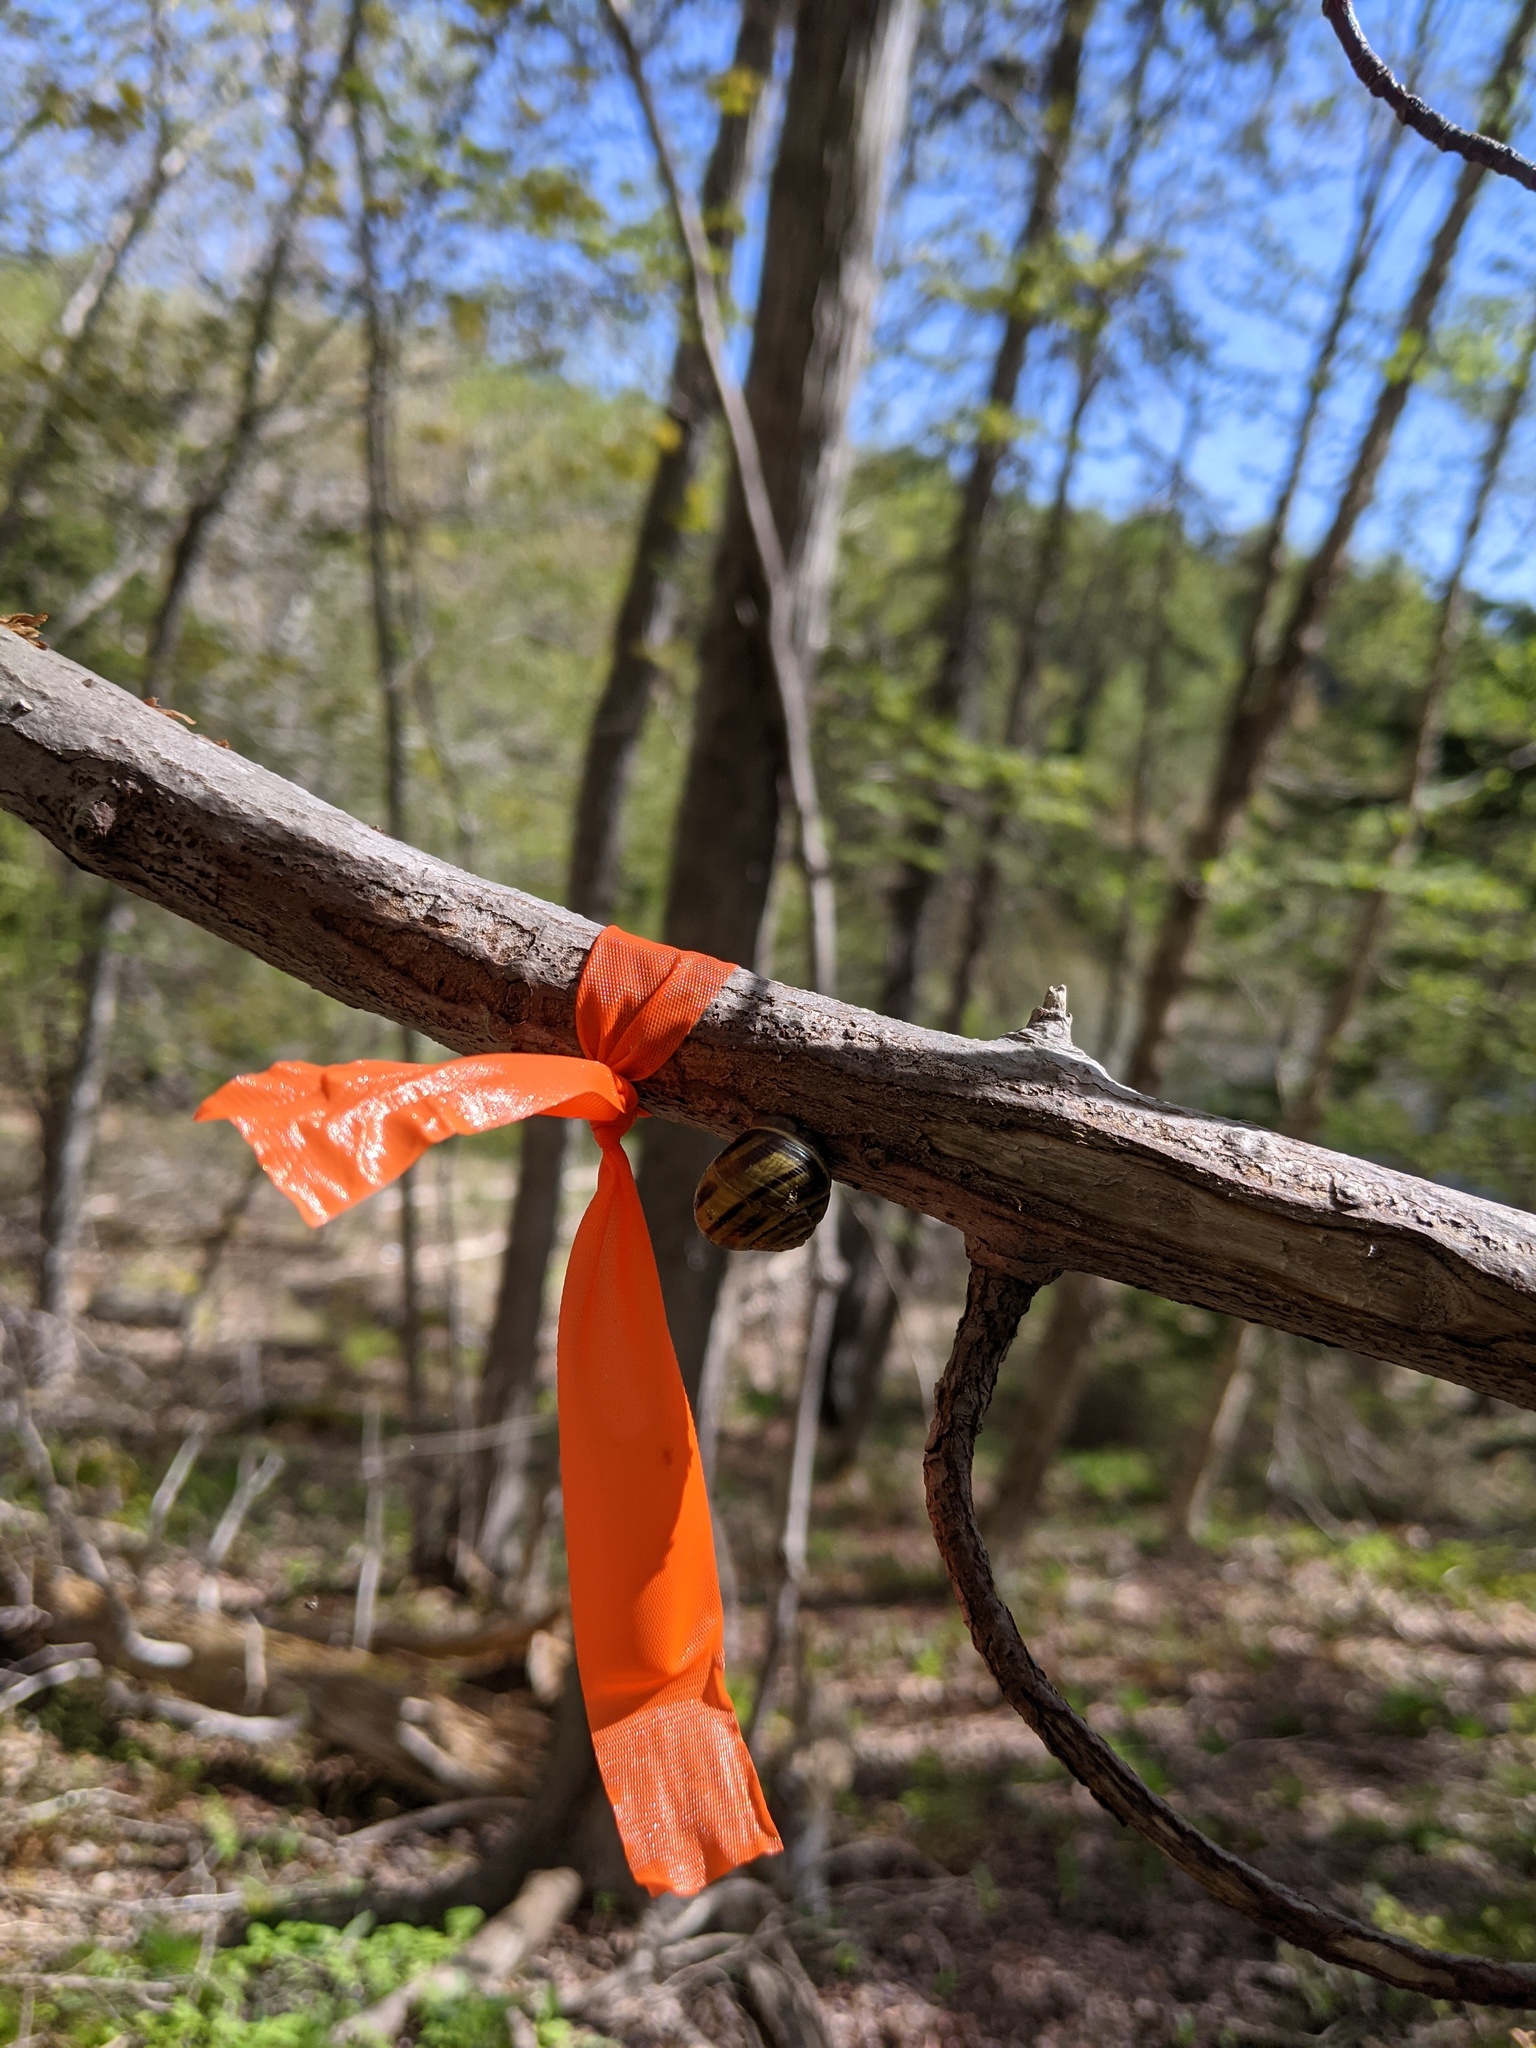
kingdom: Animalia
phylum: Mollusca
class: Gastropoda
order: Stylommatophora
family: Helicidae
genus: Cepaea
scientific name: Cepaea
